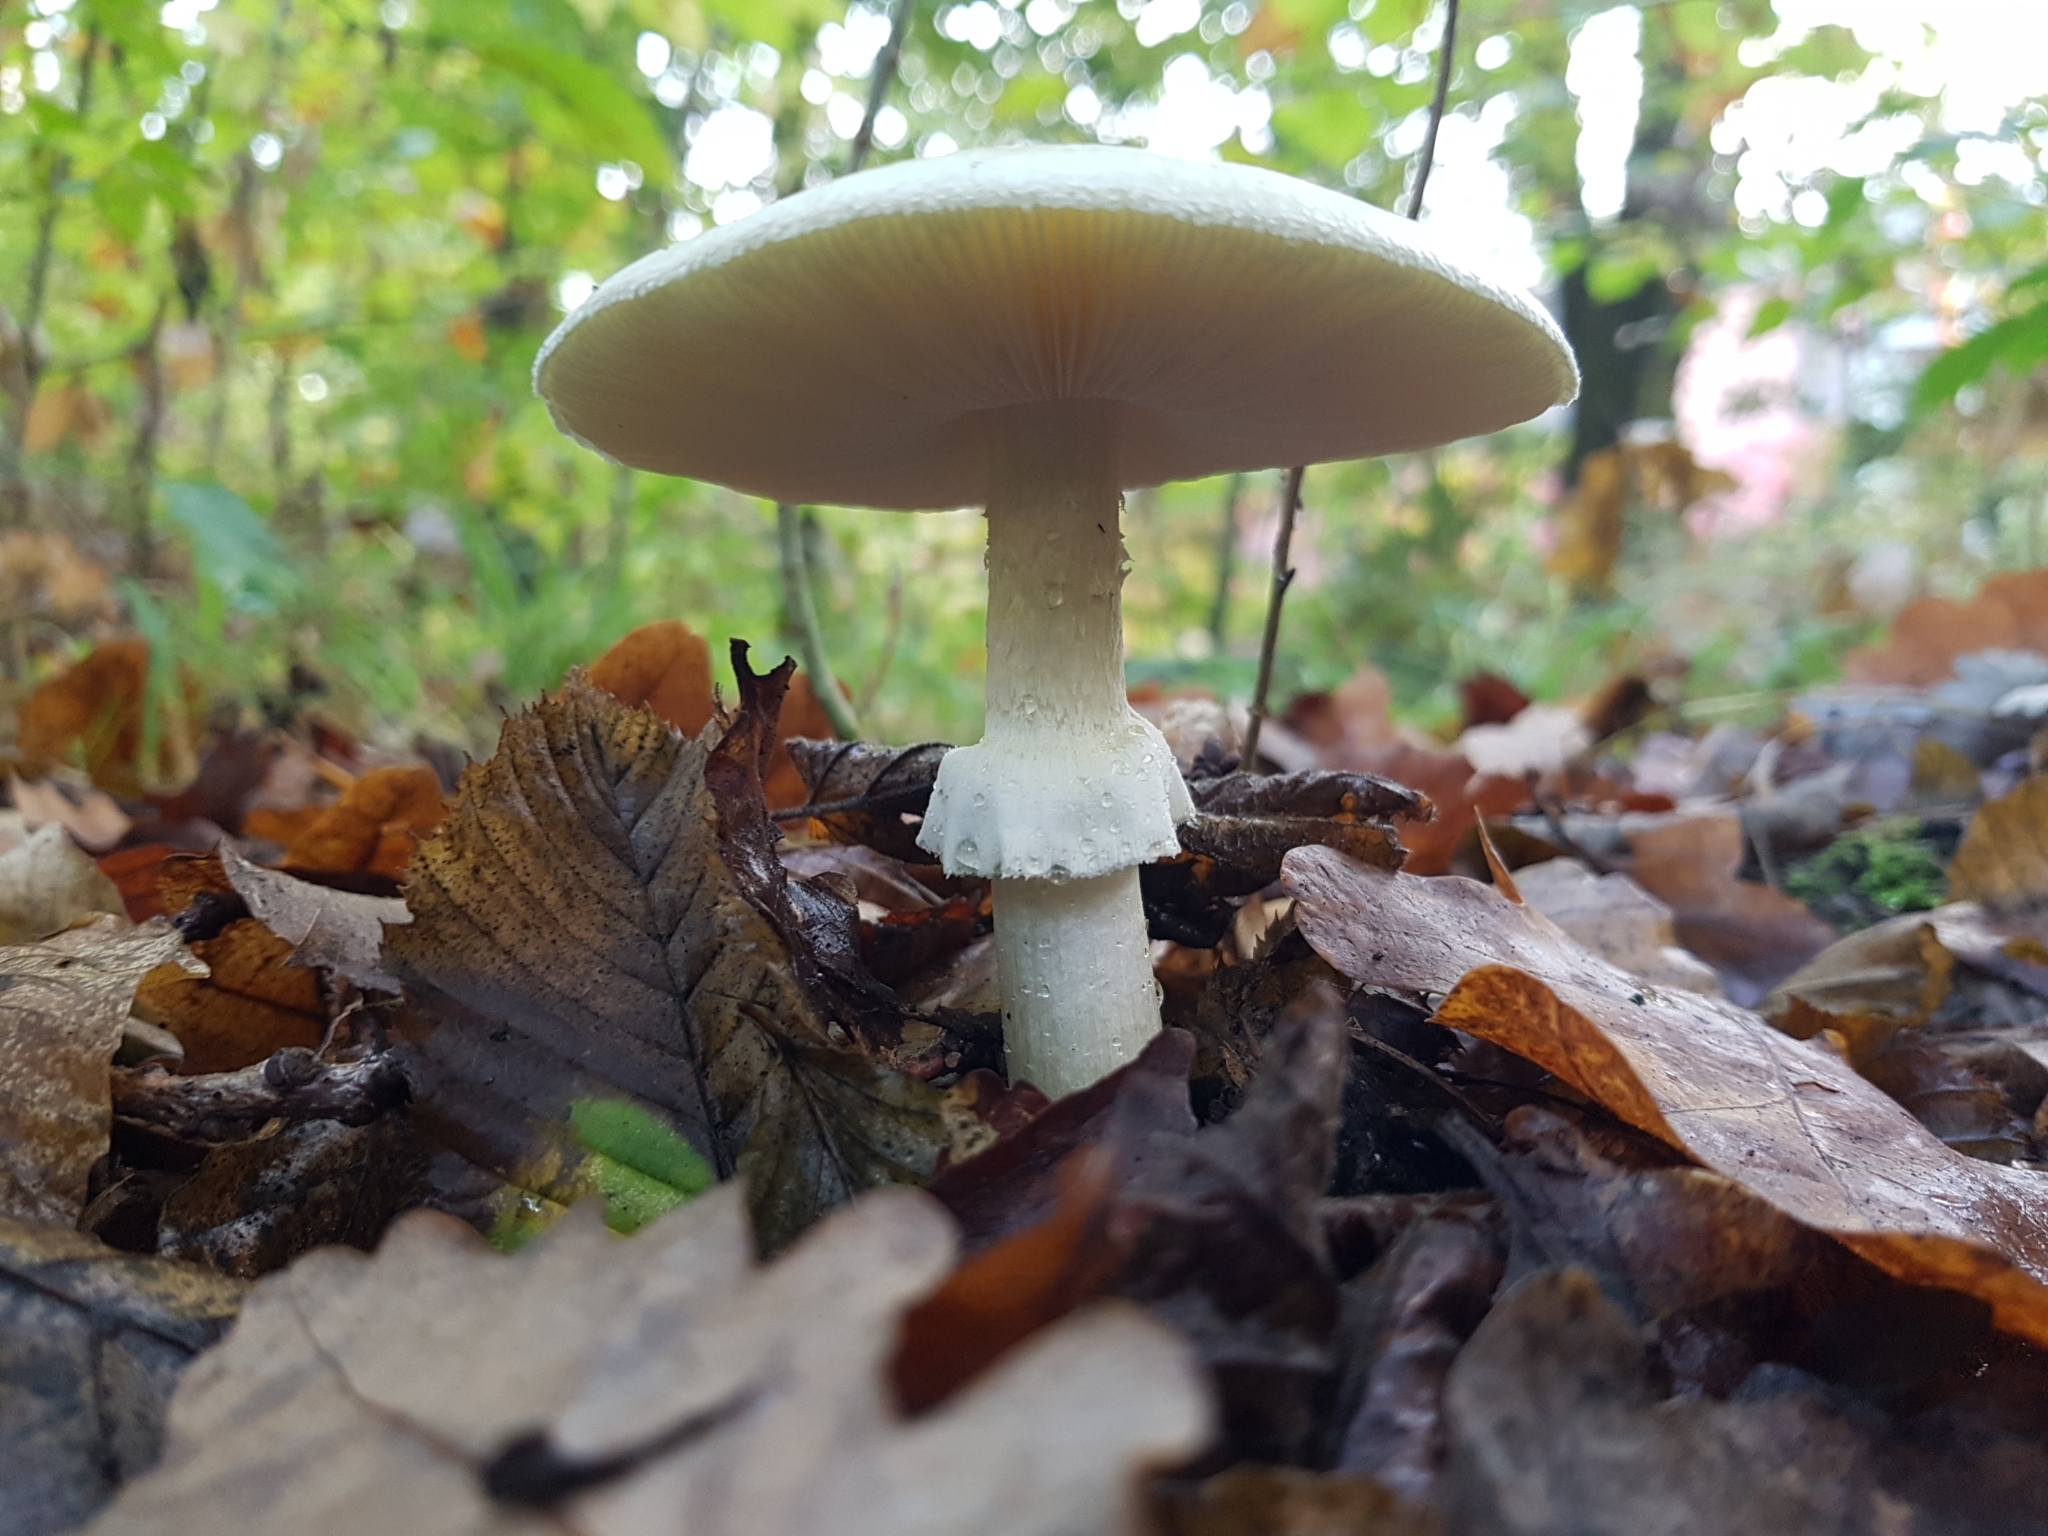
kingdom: Fungi
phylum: Basidiomycota
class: Agaricomycetes
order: Agaricales
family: Amanitaceae
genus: Amanita
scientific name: Amanita phalloides
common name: Death cap
